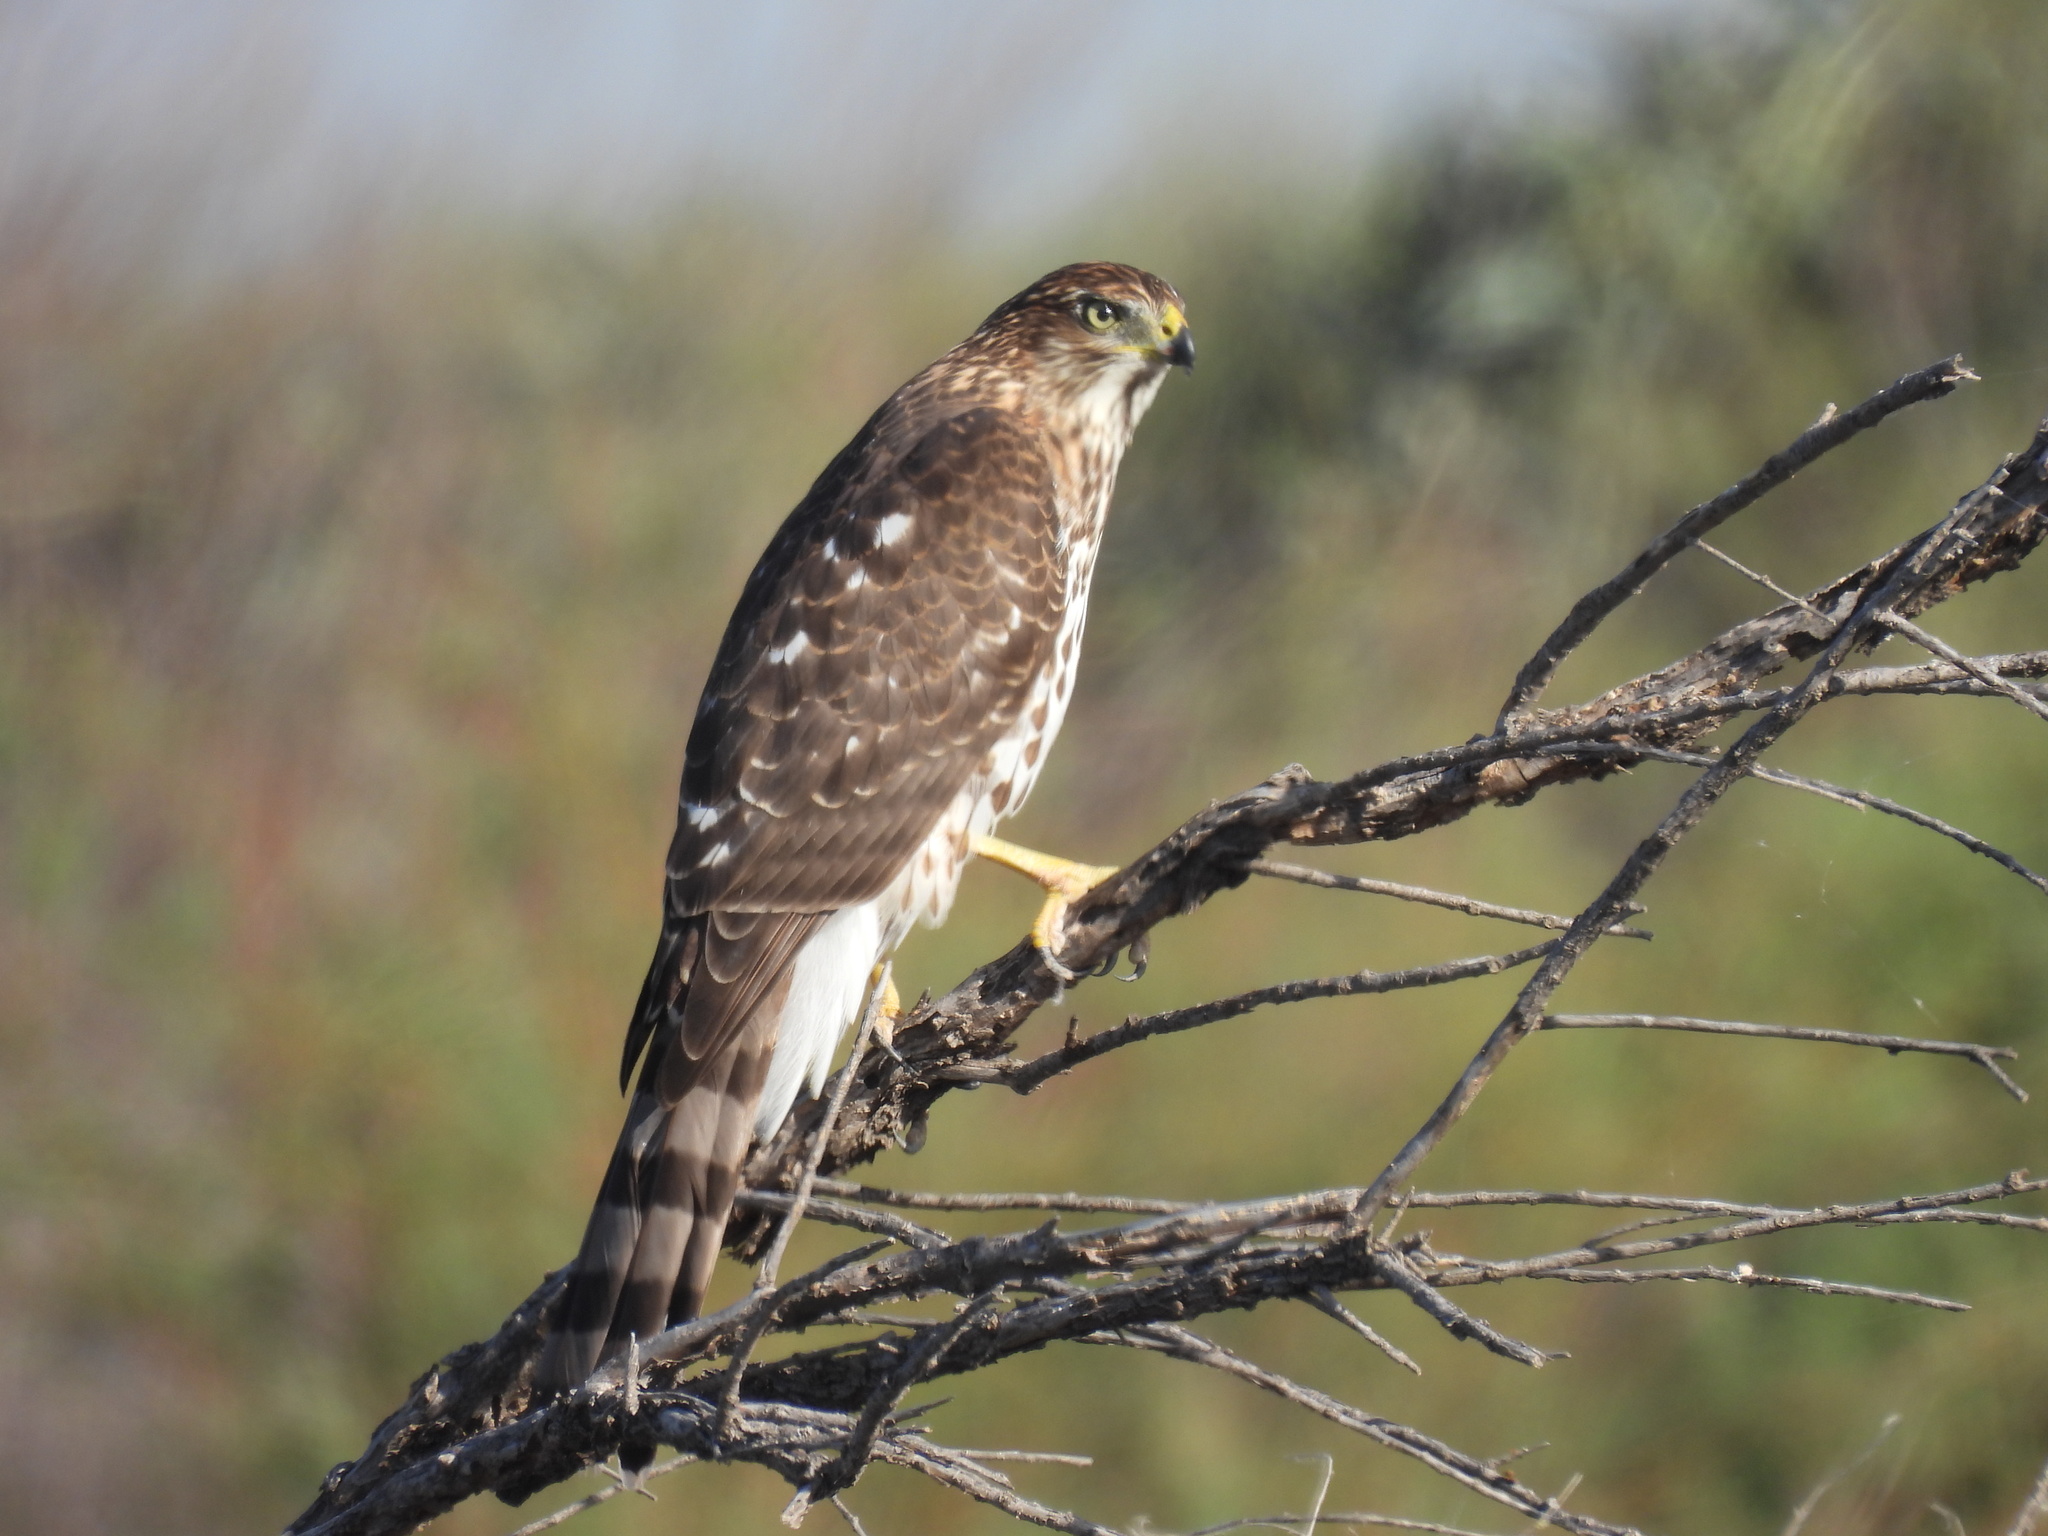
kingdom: Animalia
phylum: Chordata
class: Aves
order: Accipitriformes
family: Accipitridae
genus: Accipiter
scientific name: Accipiter cooperii
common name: Cooper's hawk
